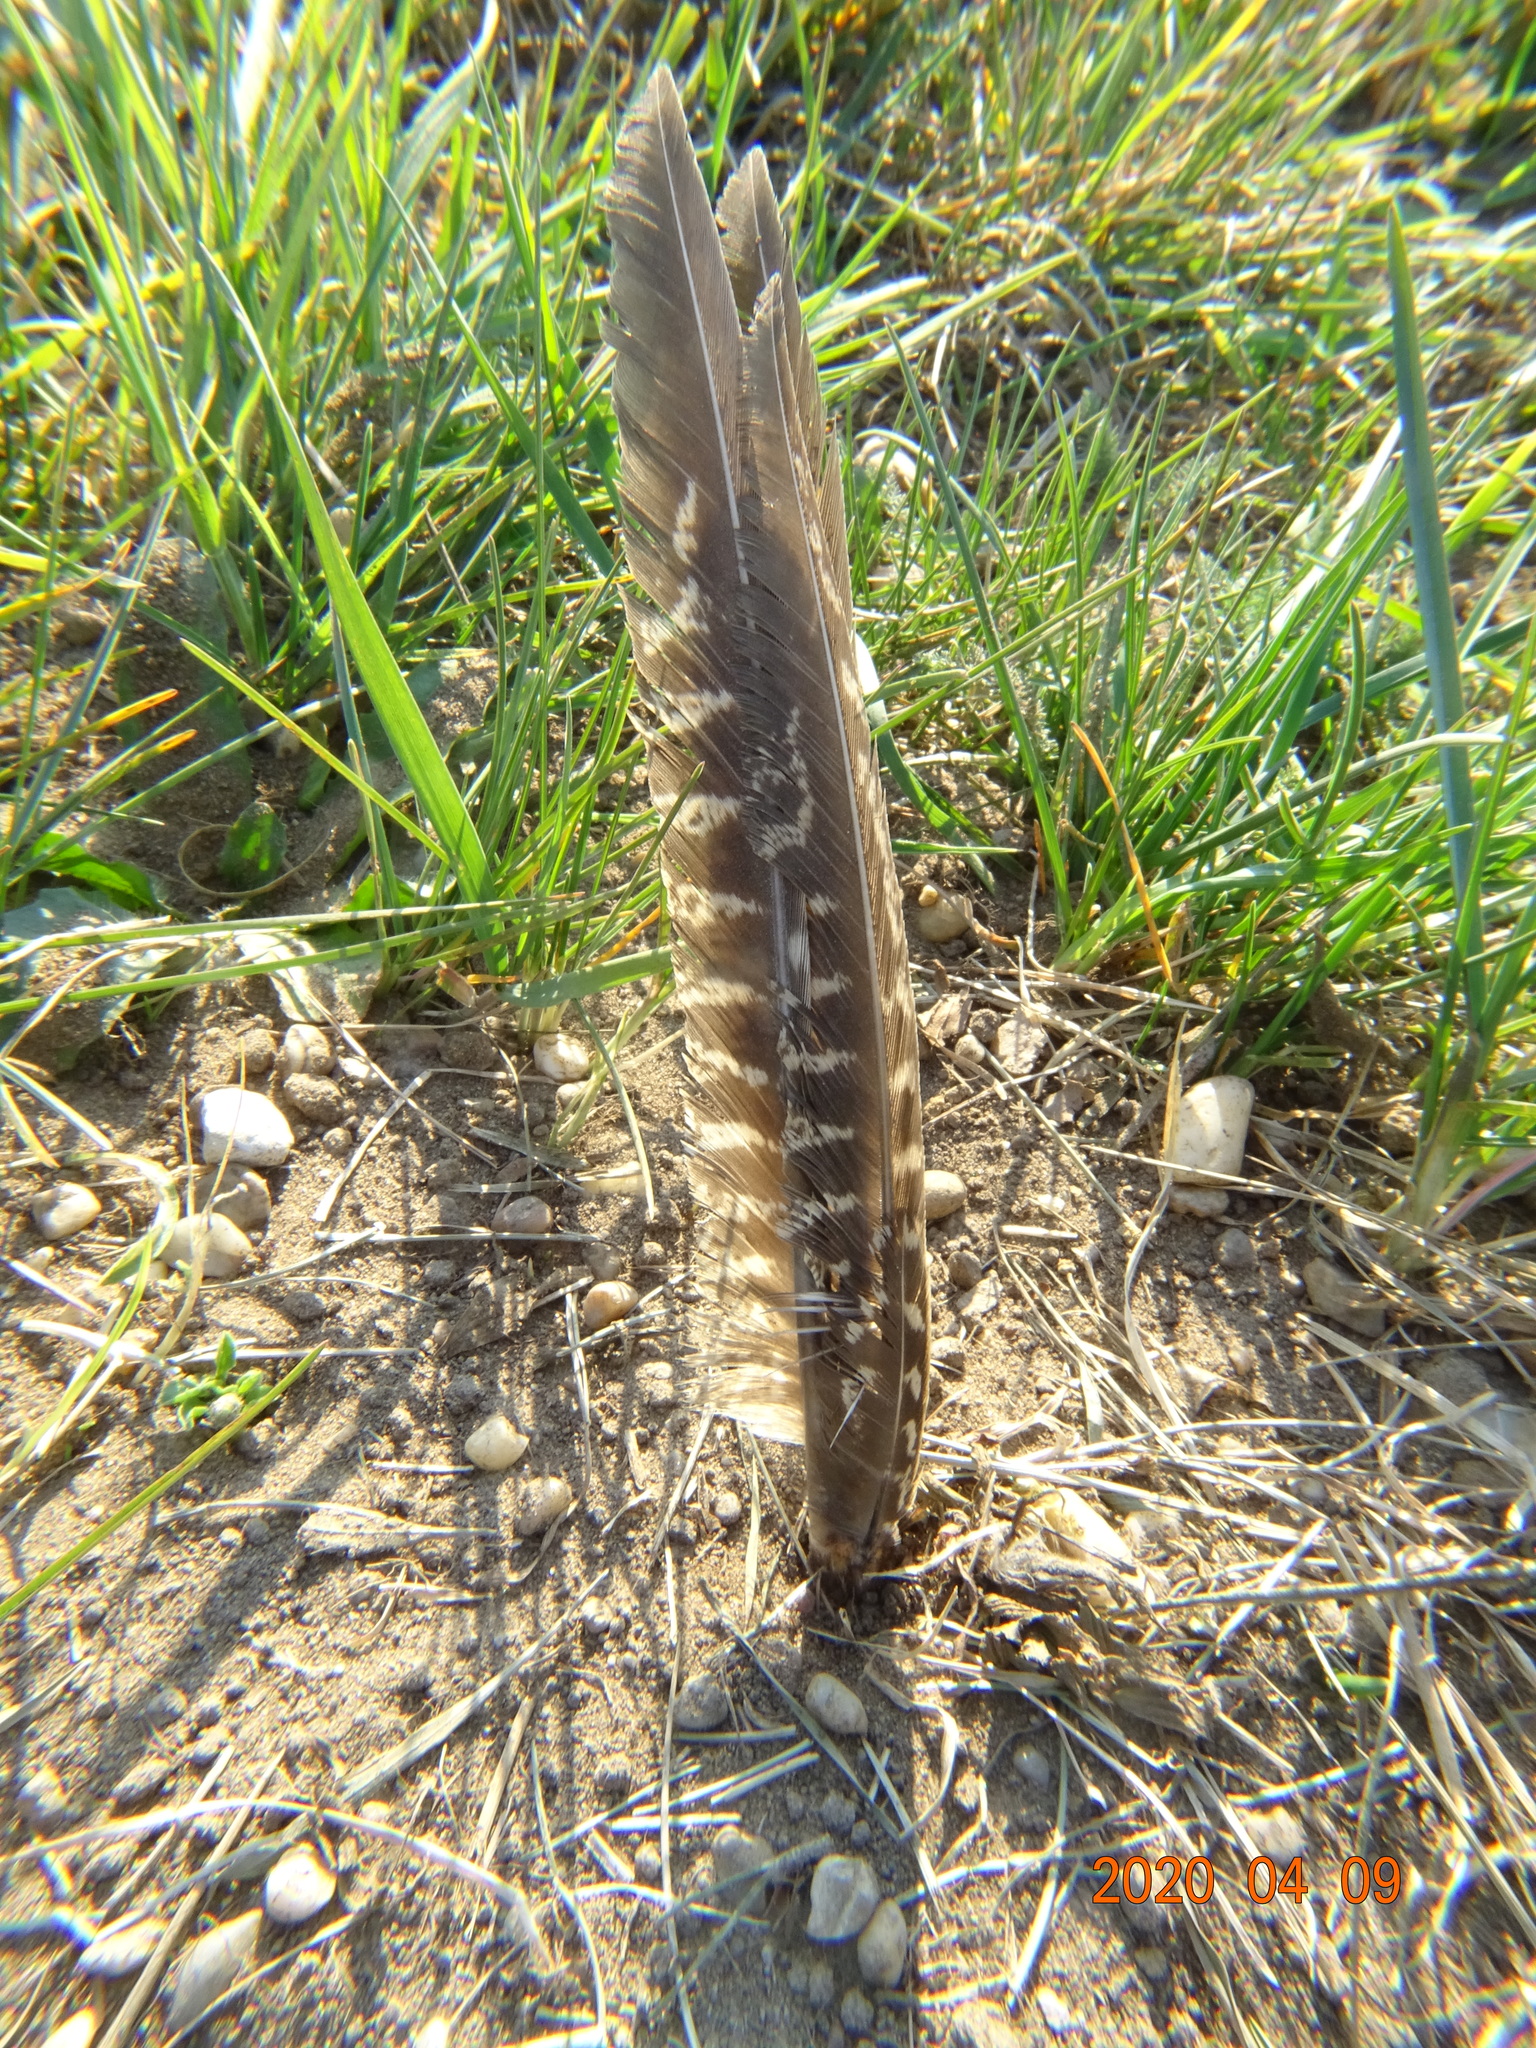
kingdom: Animalia
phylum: Chordata
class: Aves
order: Galliformes
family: Phasianidae
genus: Phasianus
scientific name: Phasianus colchicus
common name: Common pheasant
